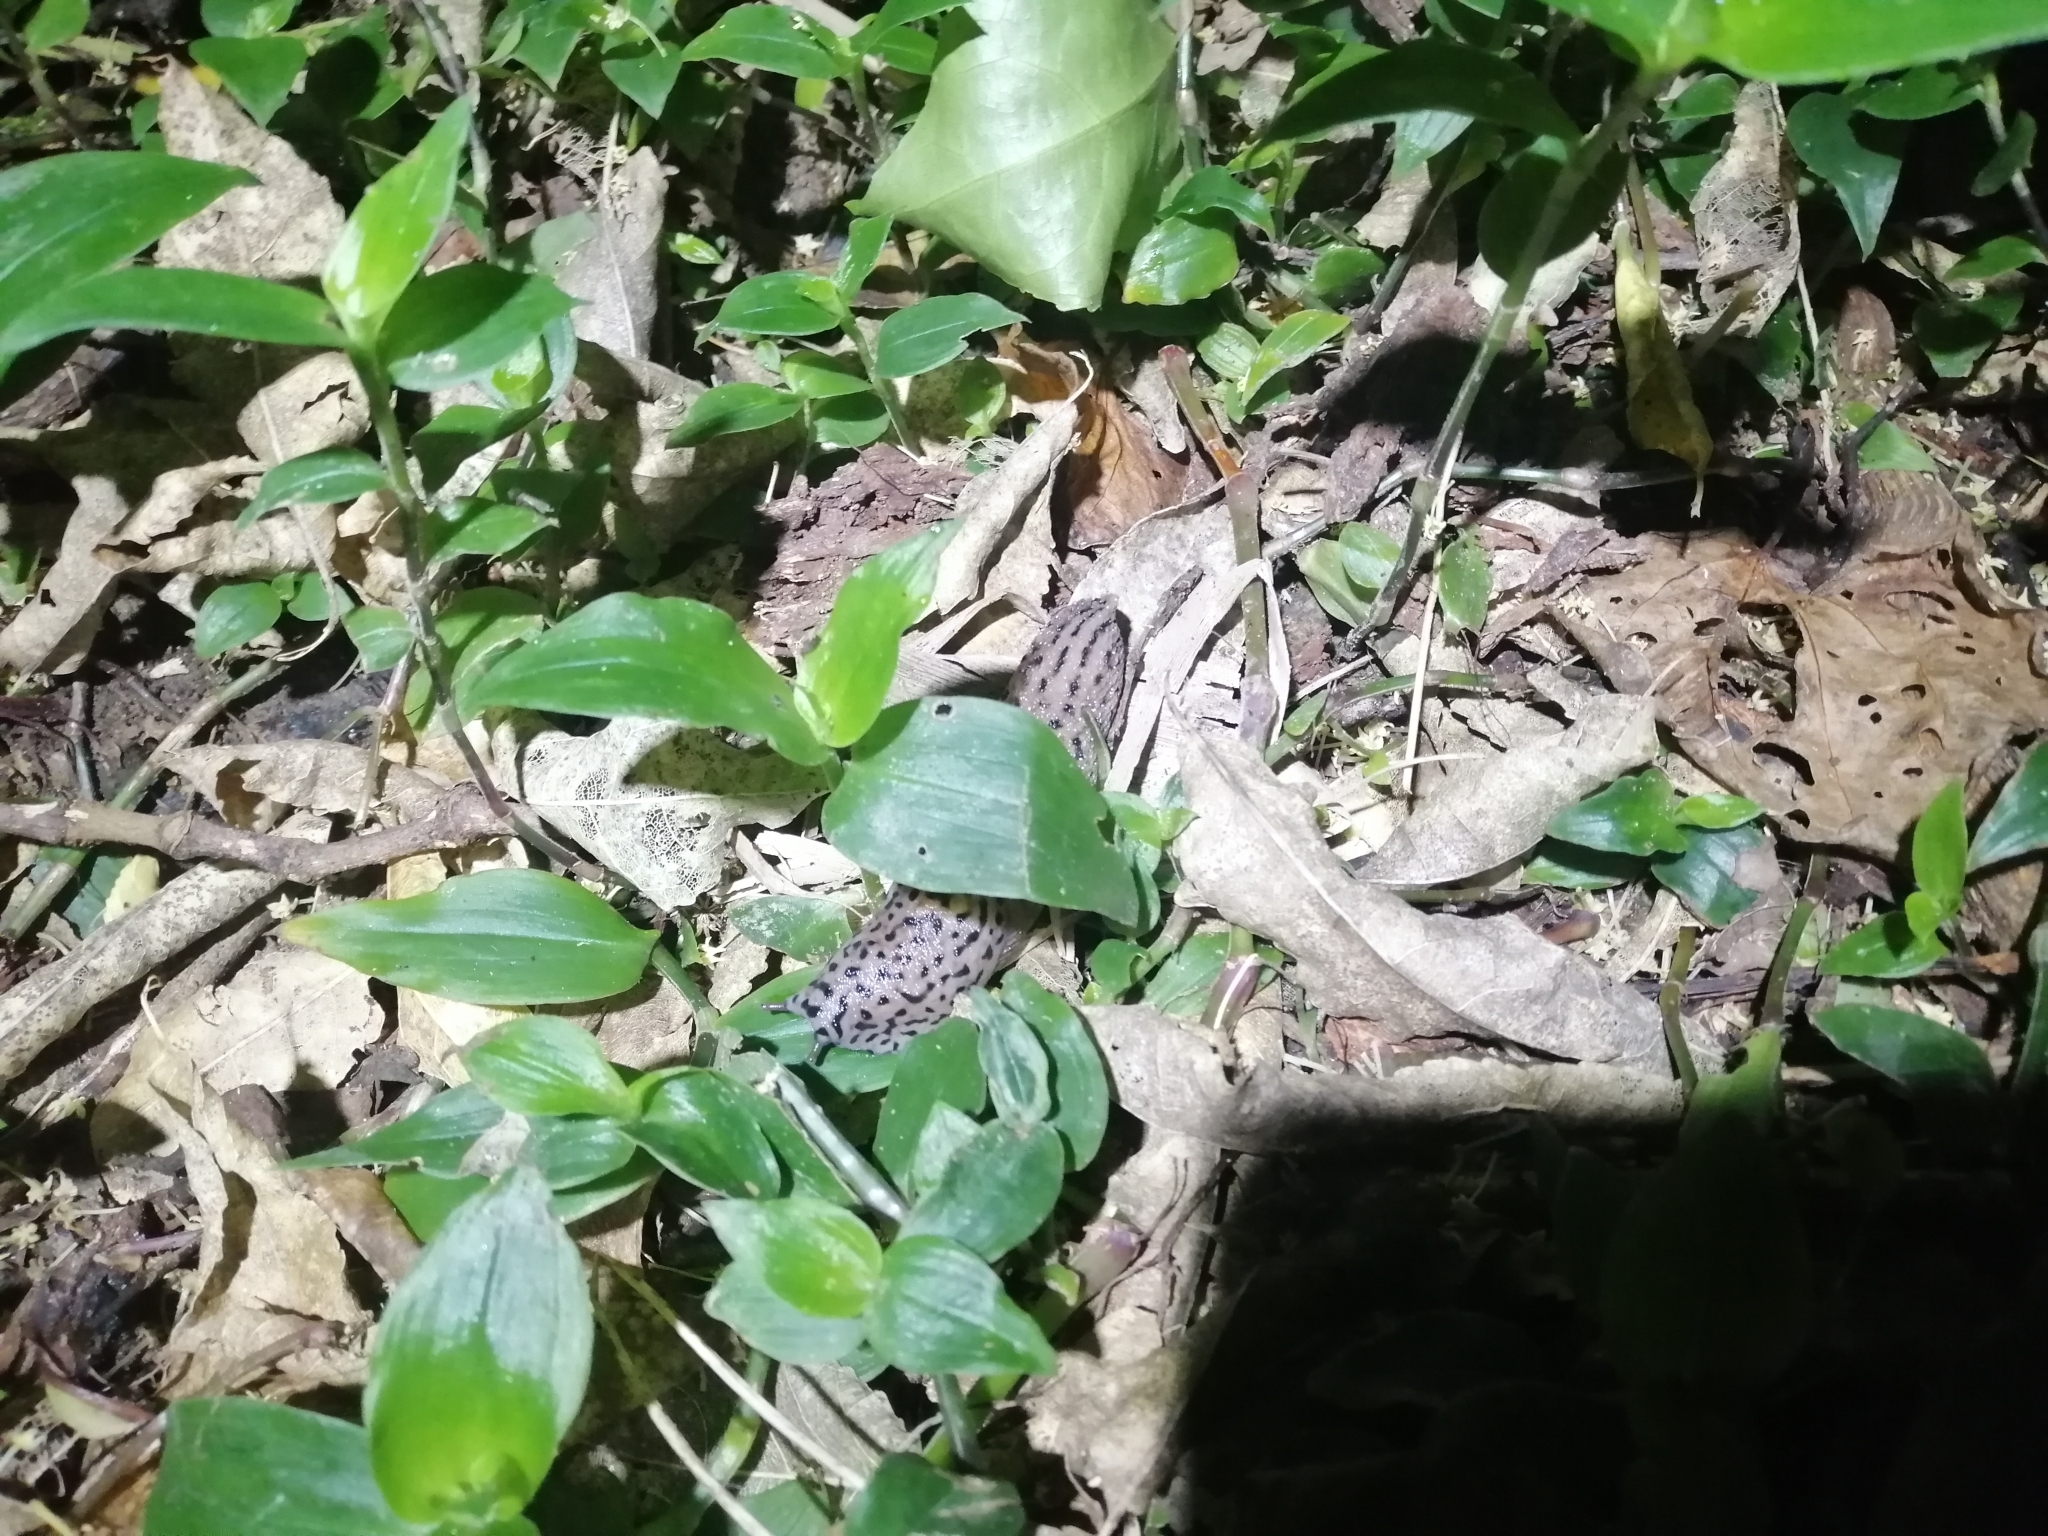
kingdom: Animalia
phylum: Mollusca
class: Gastropoda
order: Stylommatophora
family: Limacidae
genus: Limax
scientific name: Limax maximus
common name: Great grey slug
